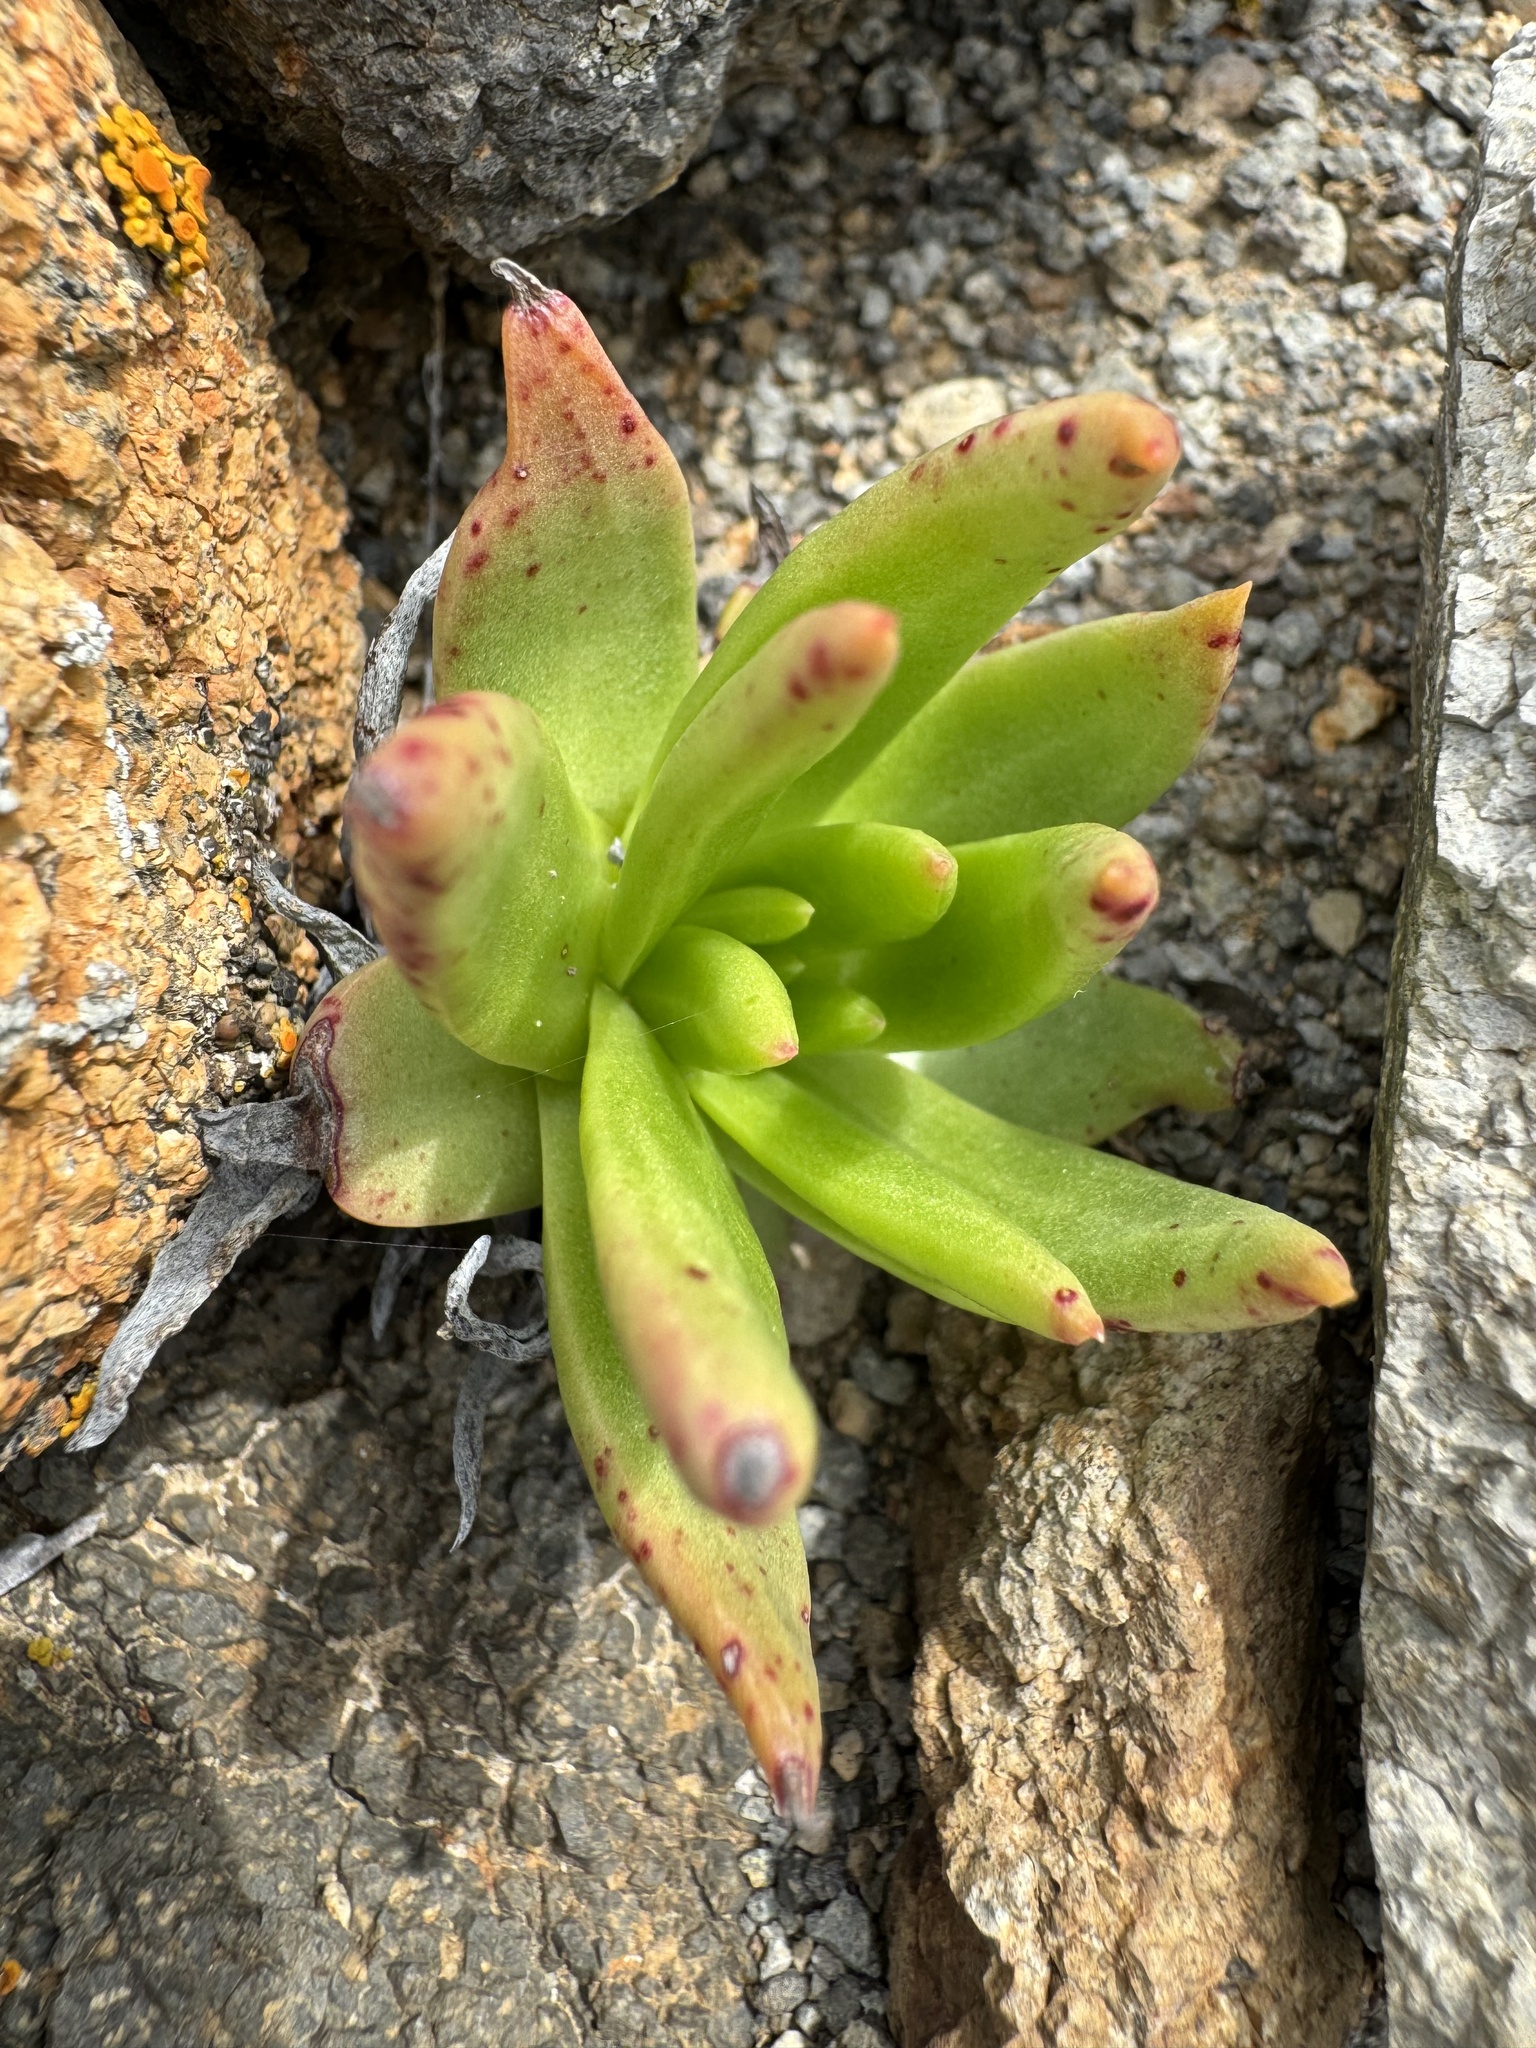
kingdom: Plantae
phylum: Tracheophyta
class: Magnoliopsida
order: Saxifragales
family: Crassulaceae
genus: Dudleya
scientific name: Dudleya virens
